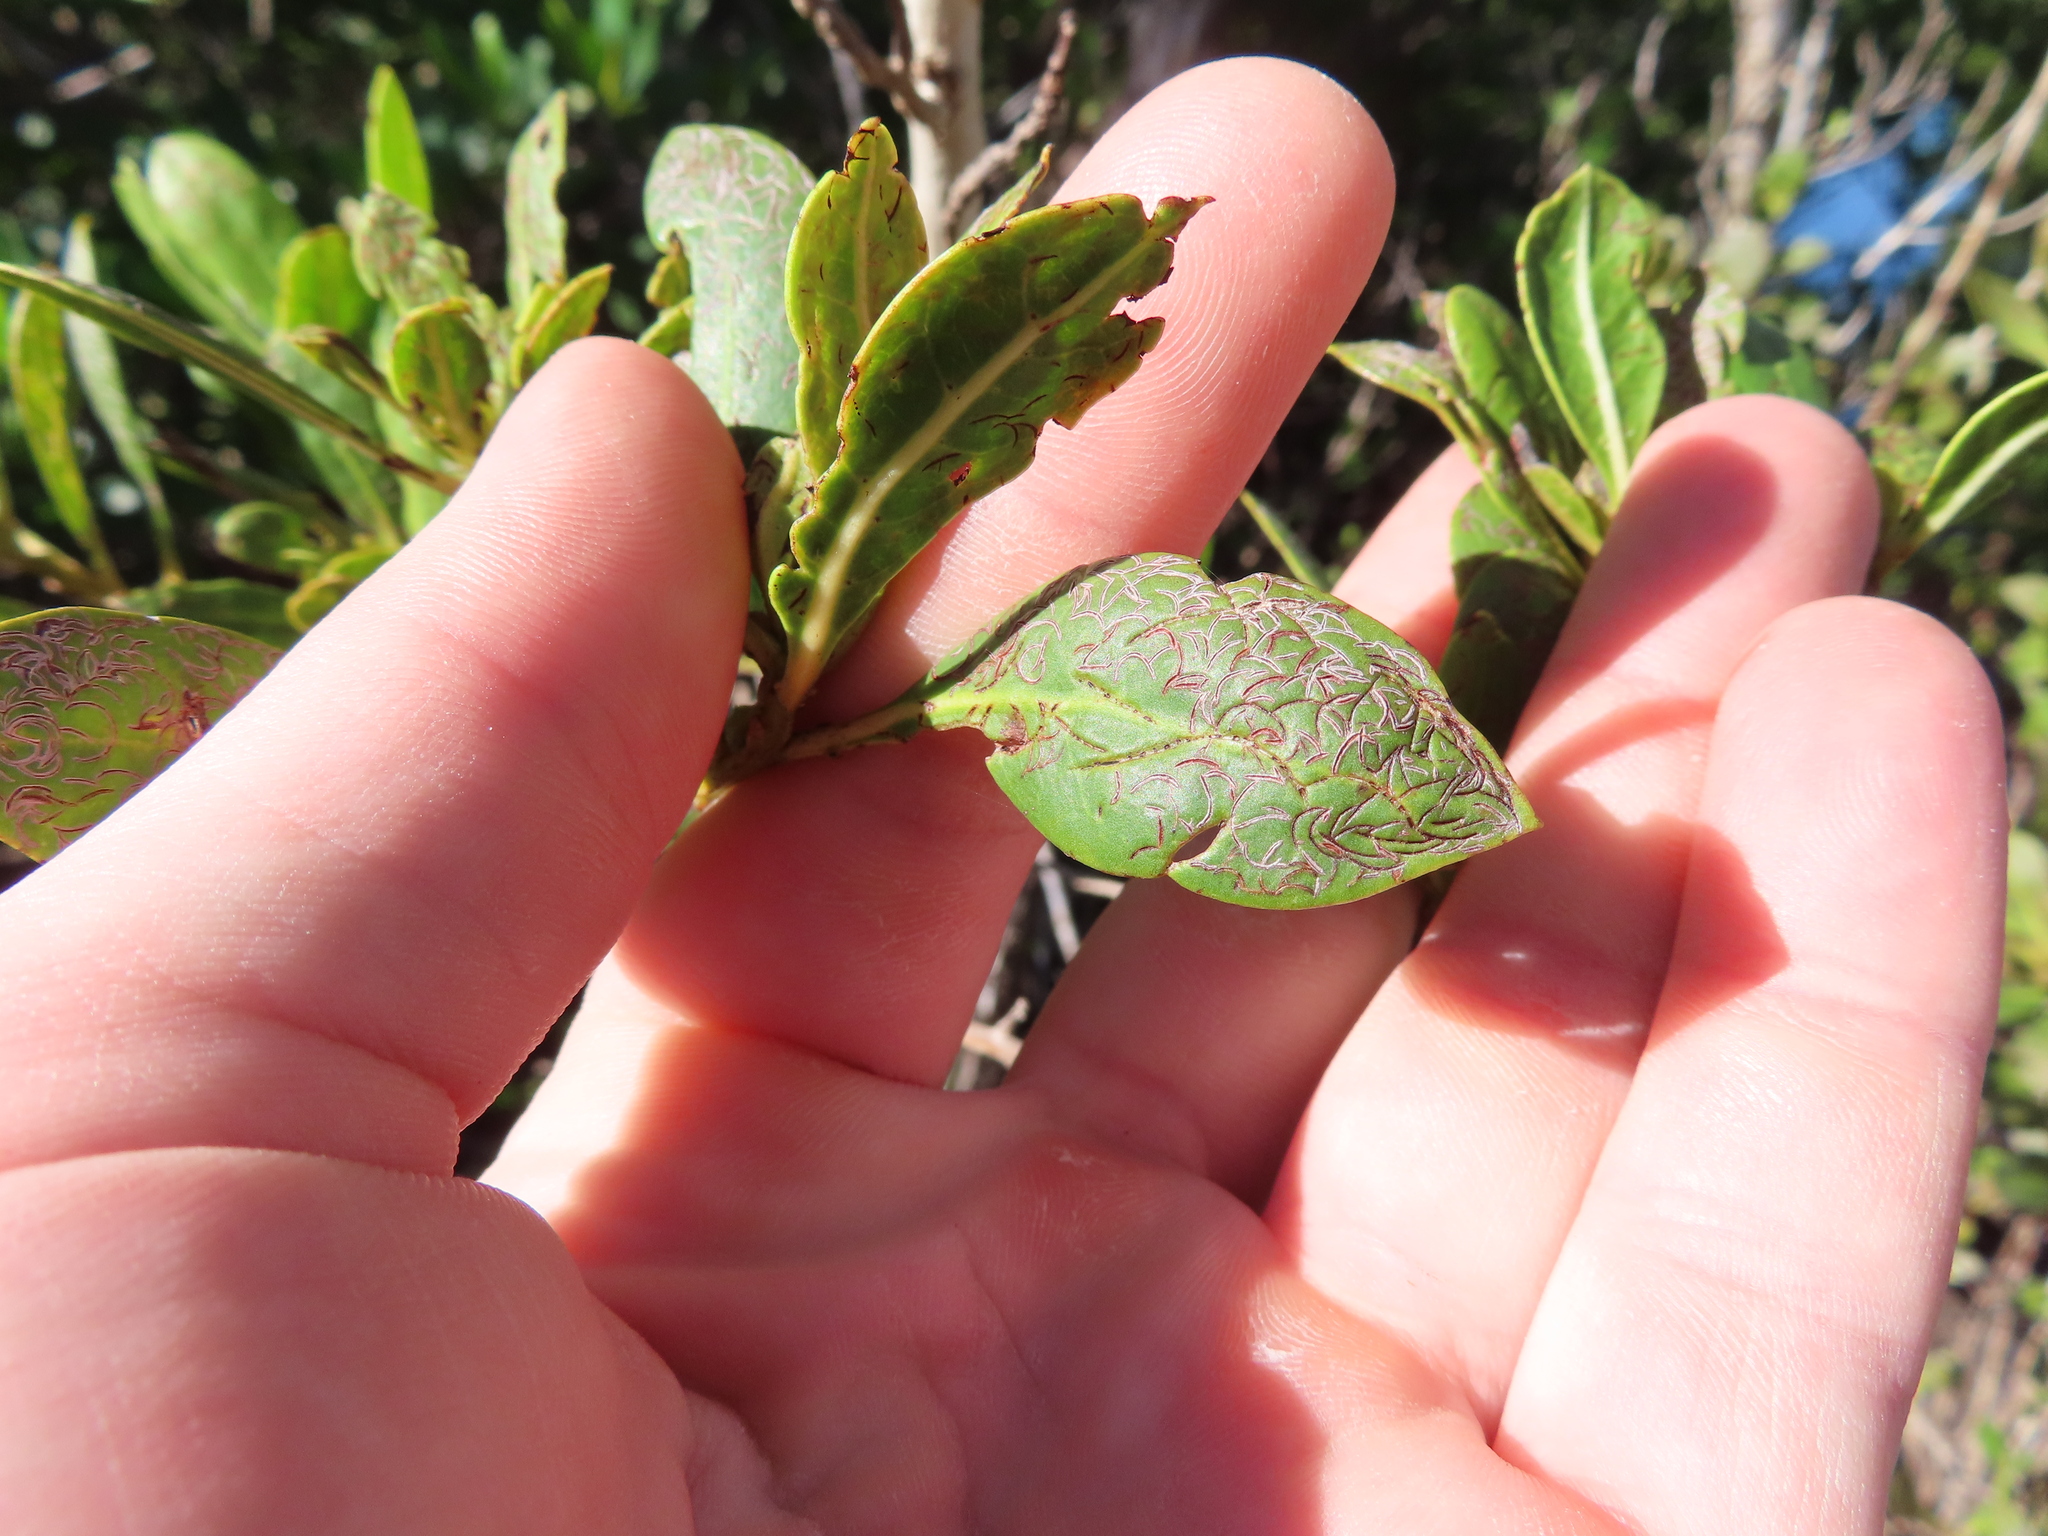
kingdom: Animalia
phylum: Arthropoda
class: Insecta
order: Coleoptera
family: Chrysomelidae
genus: Chaetocnema
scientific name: Chaetocnema brunnescens
